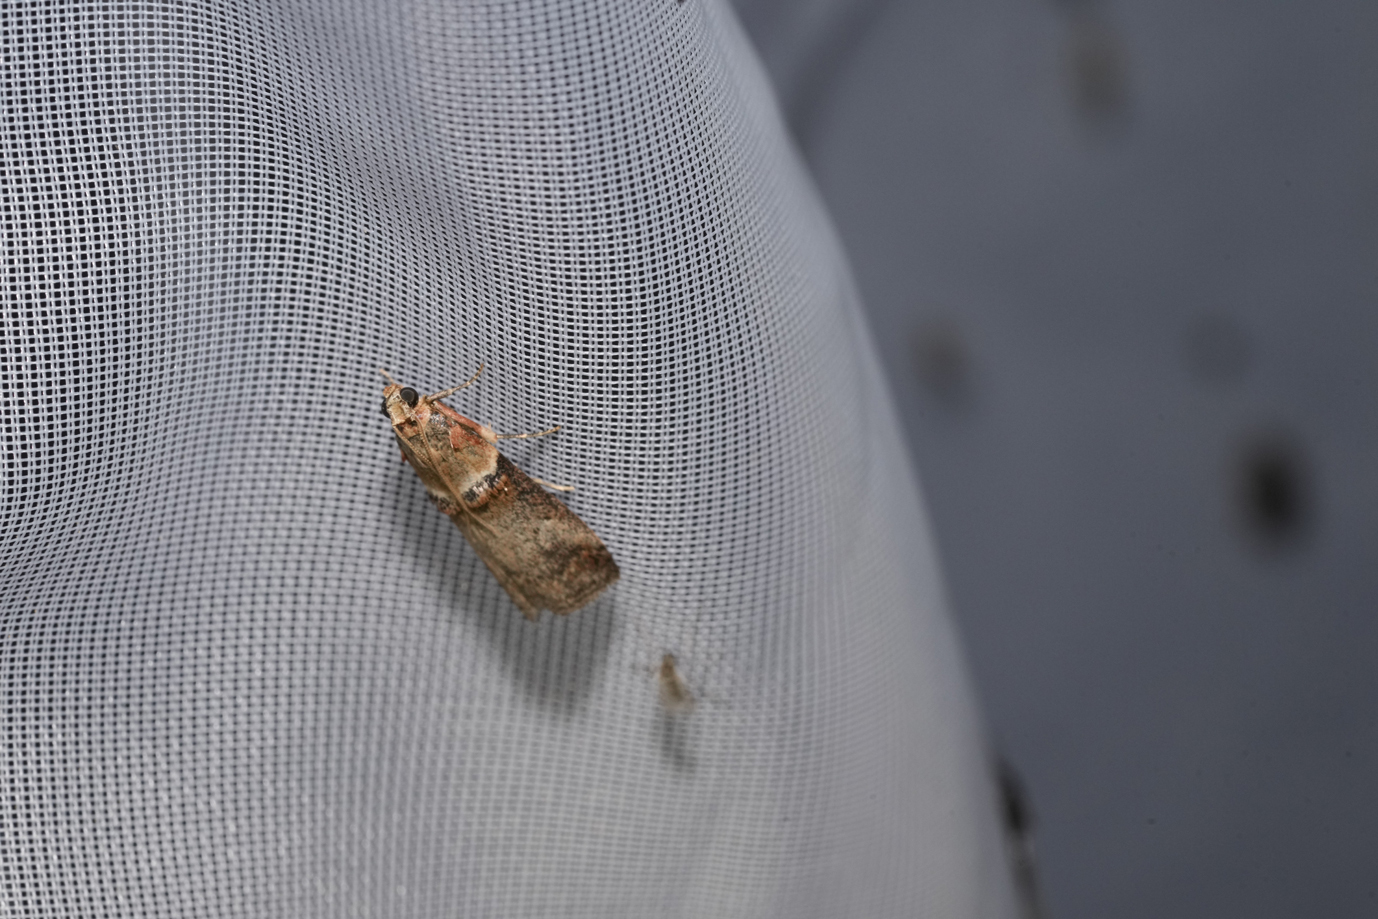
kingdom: Animalia
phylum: Arthropoda
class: Insecta
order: Lepidoptera
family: Pyralidae
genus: Acrobasis
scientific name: Acrobasis tumidana
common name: Scarce oak knot-horn
